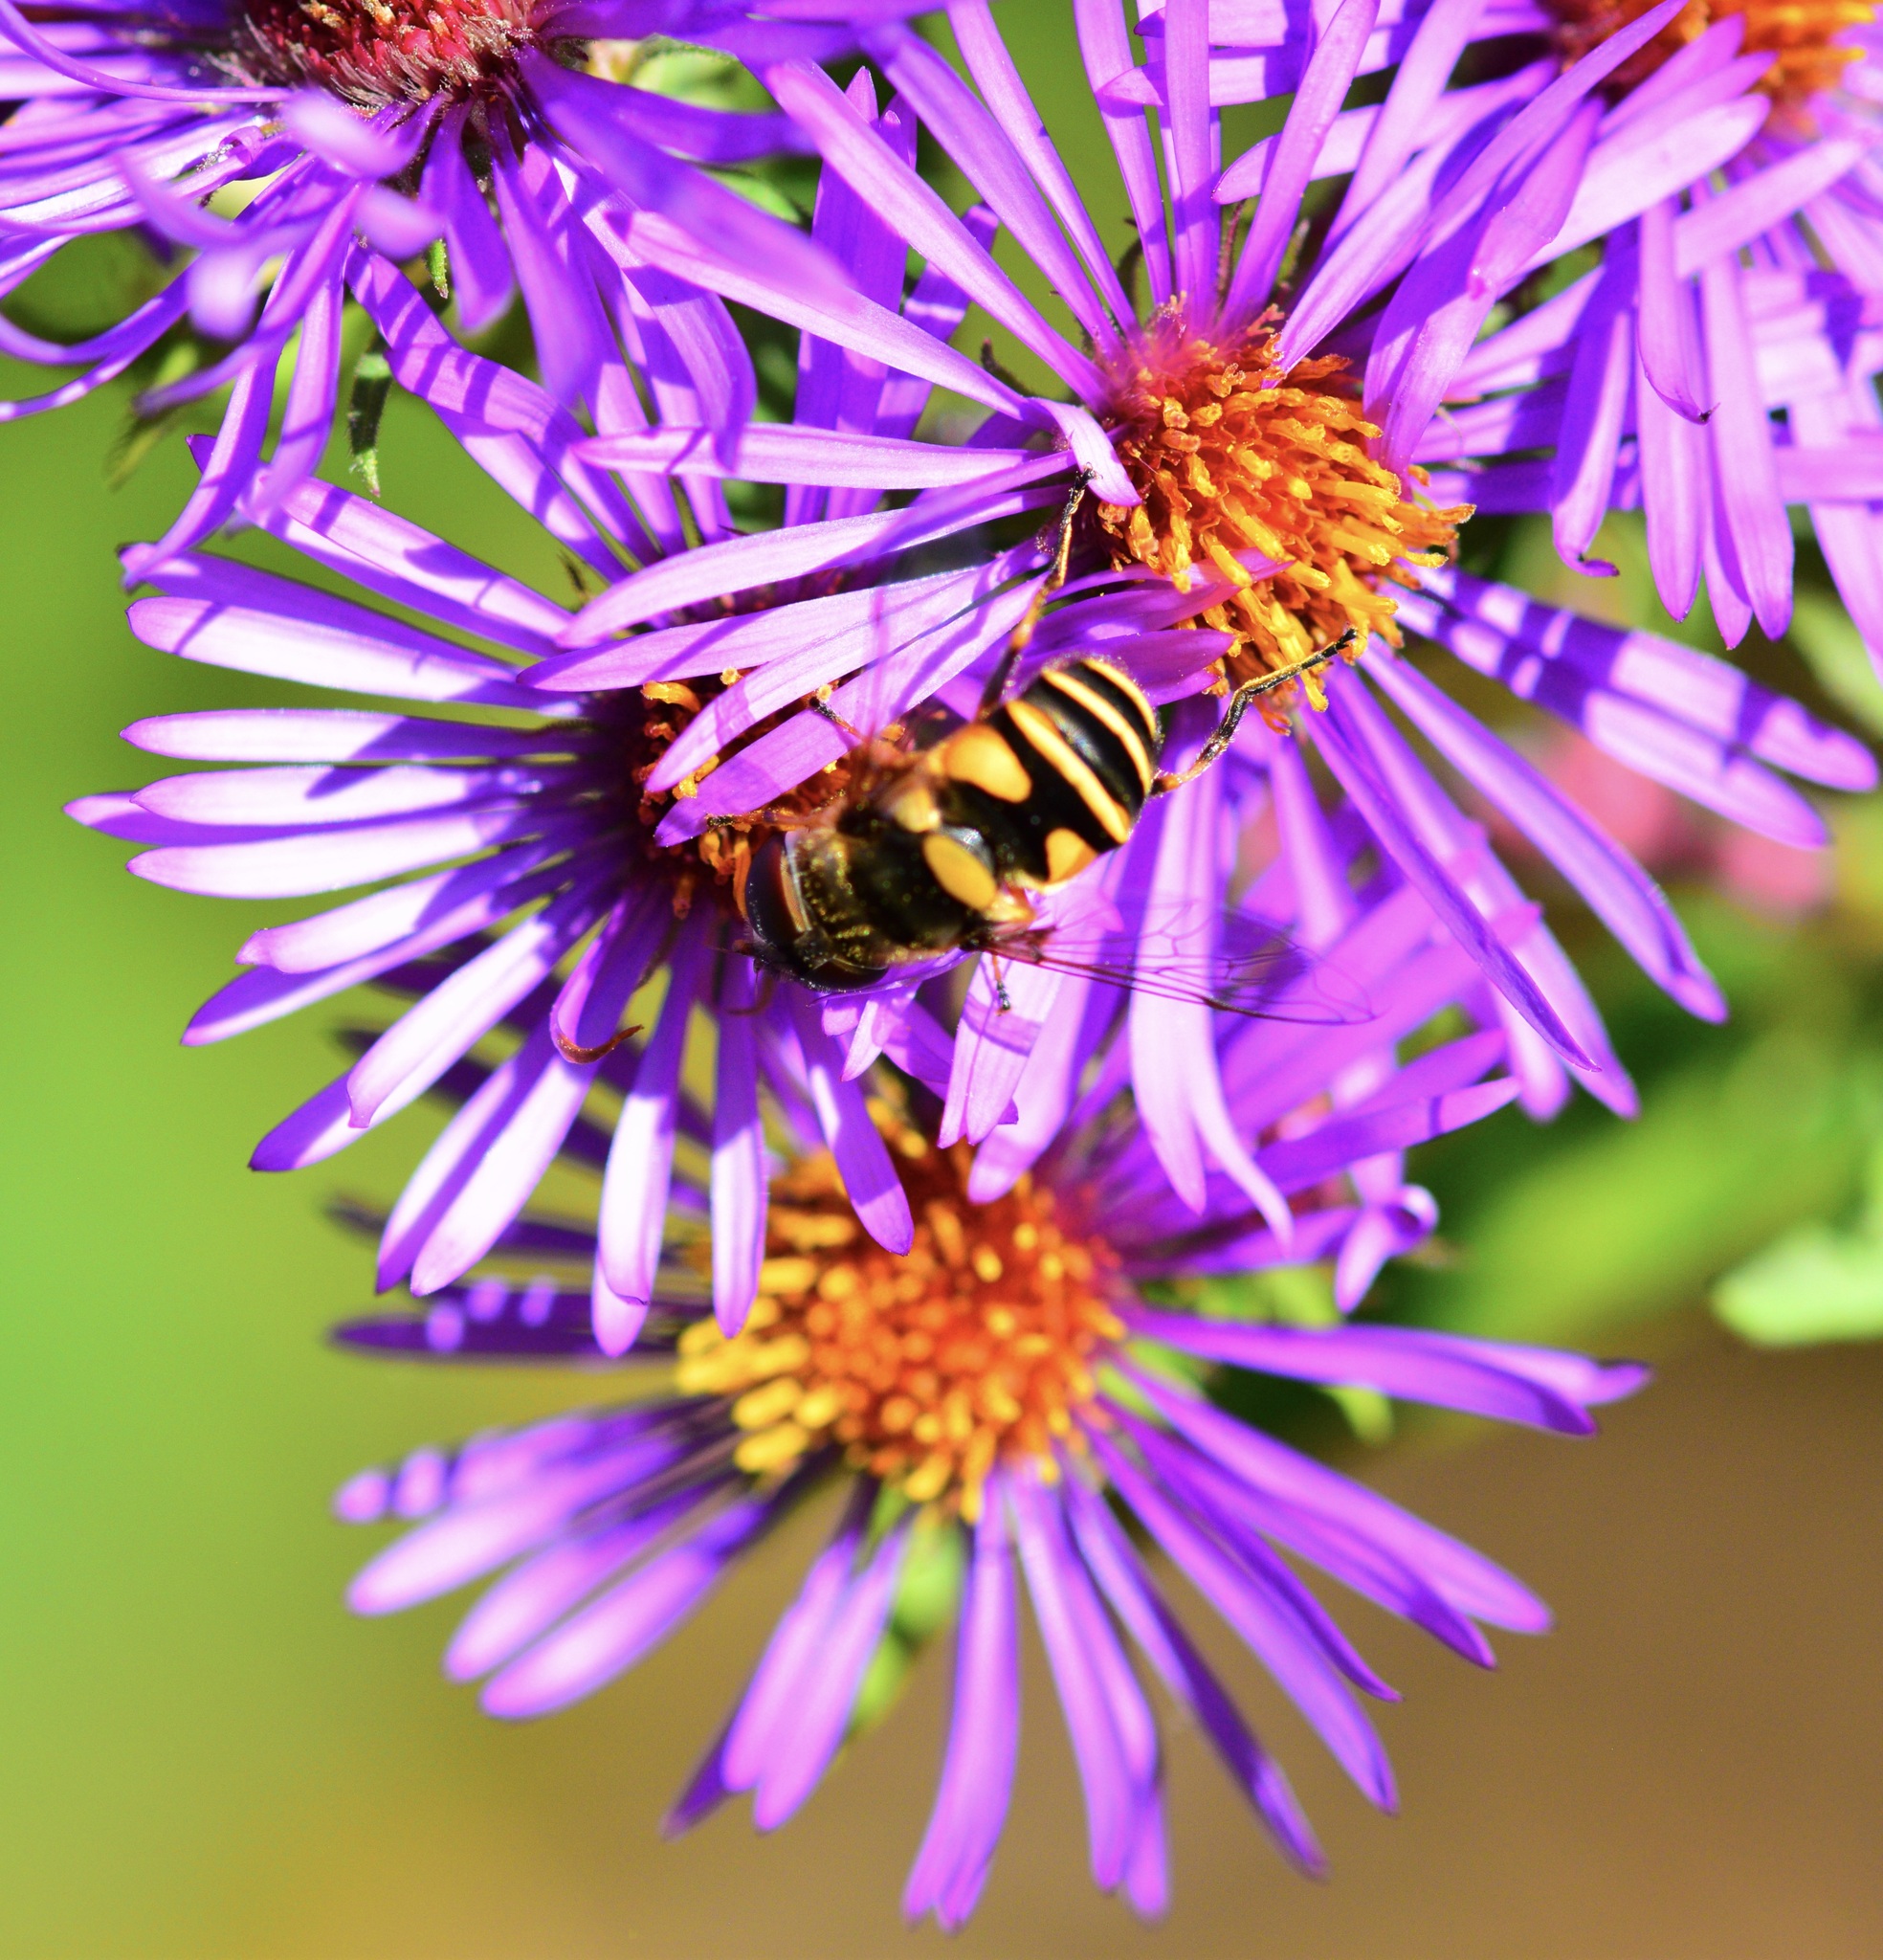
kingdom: Animalia
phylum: Arthropoda
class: Insecta
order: Diptera
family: Syrphidae
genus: Eristalis
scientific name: Eristalis transversa
